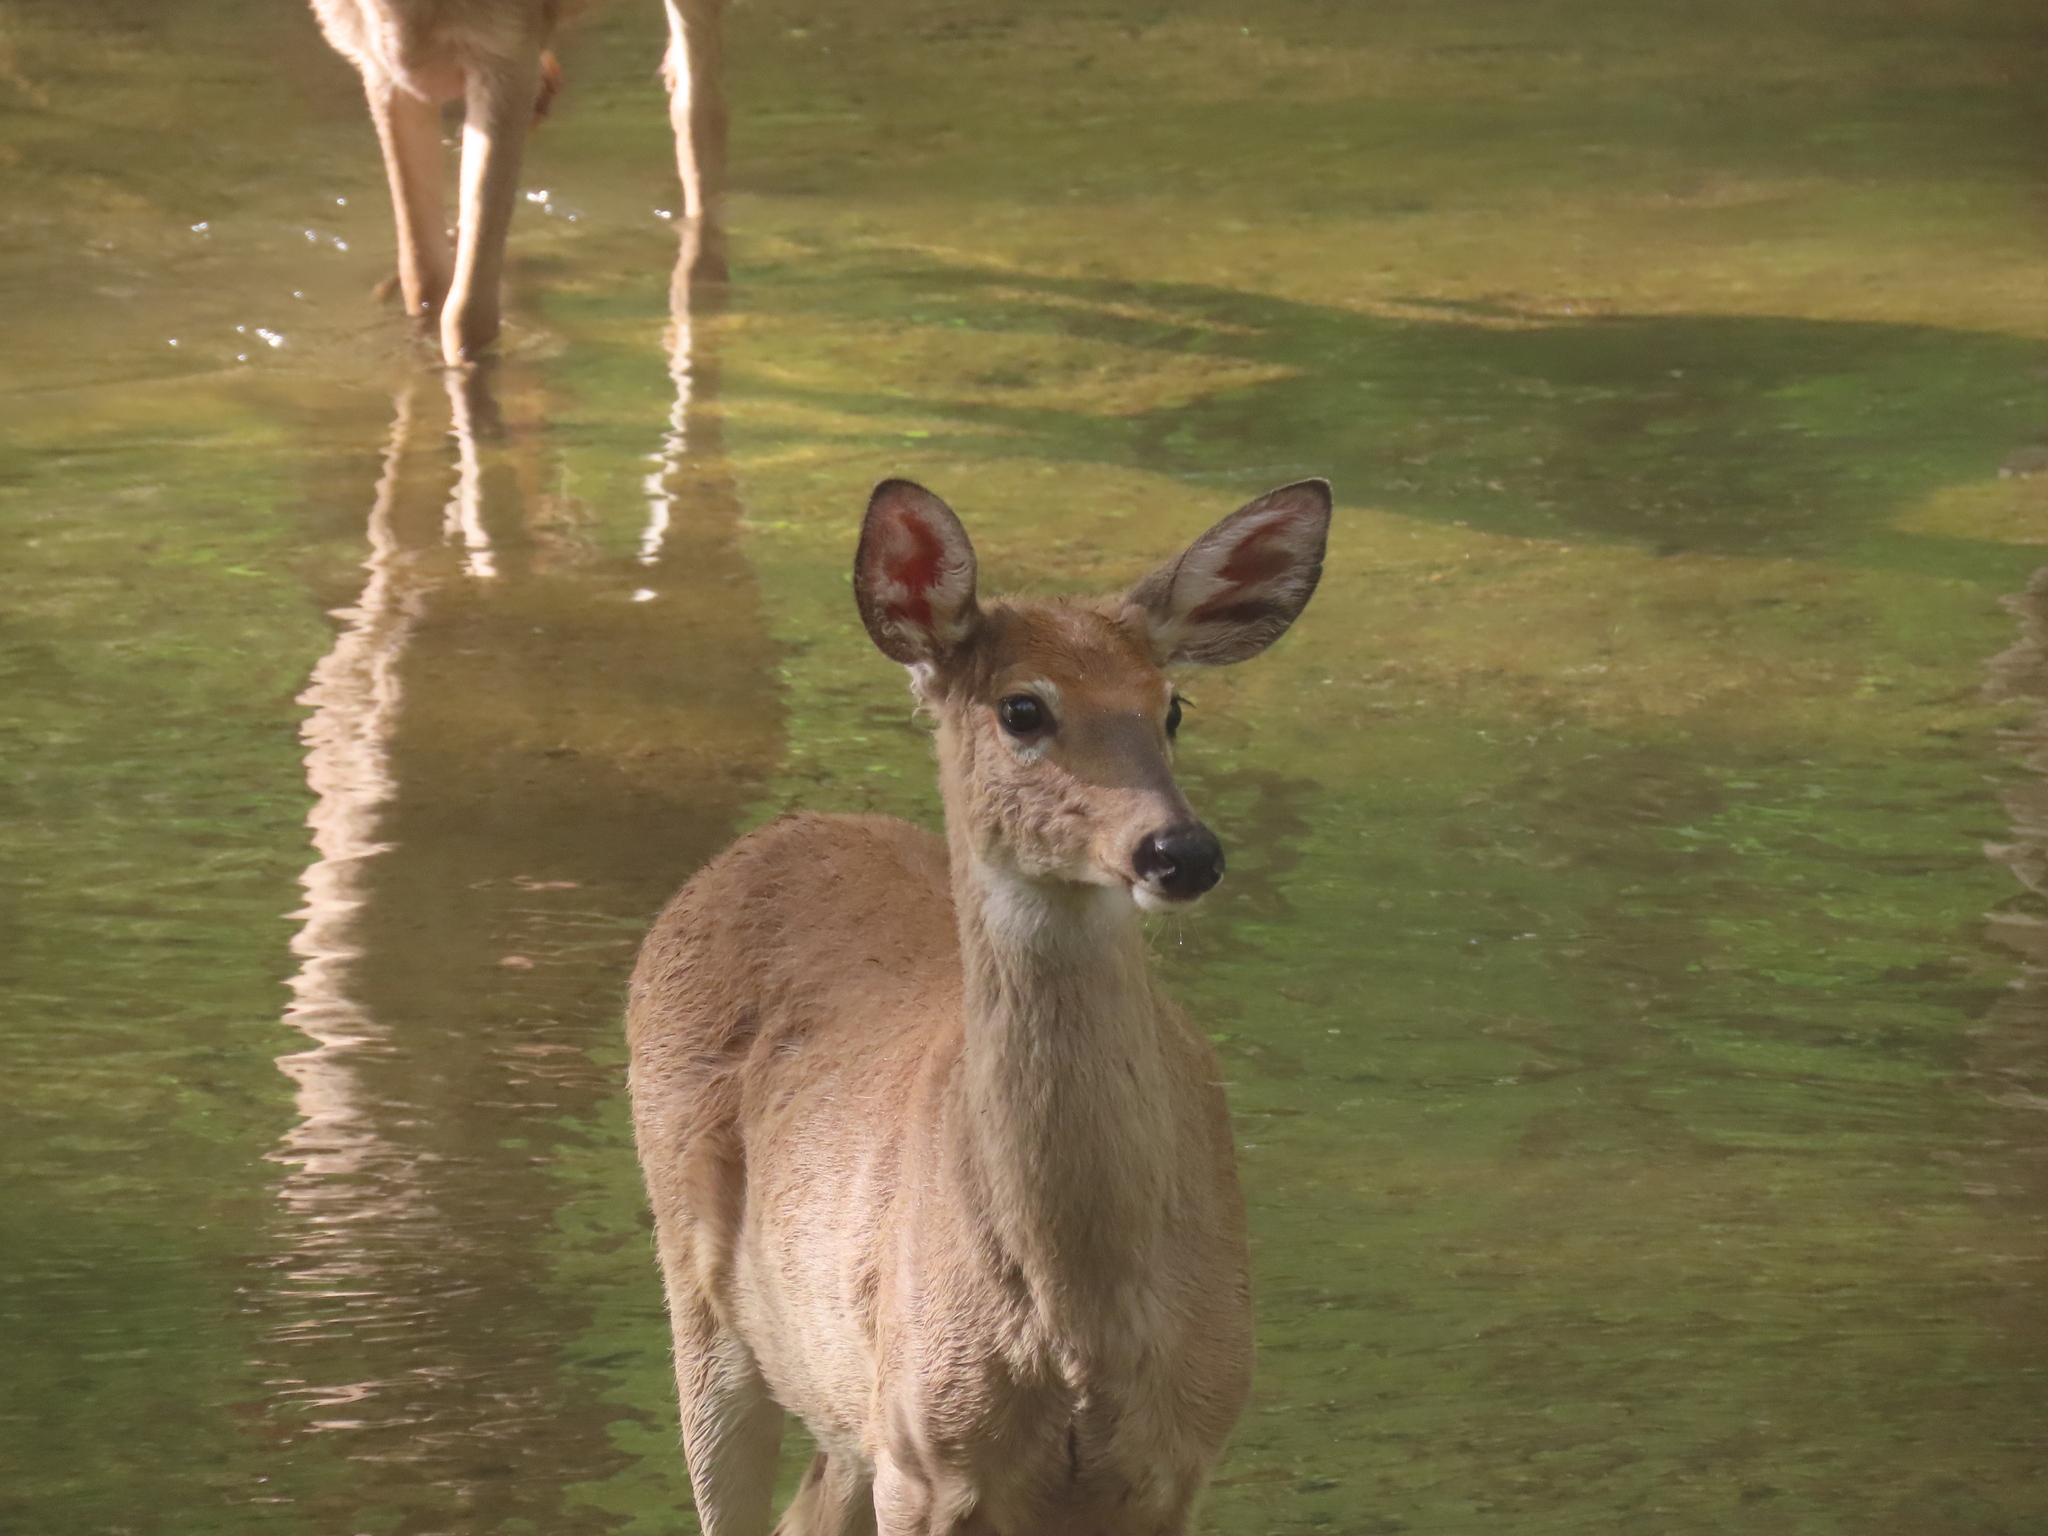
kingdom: Animalia
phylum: Chordata
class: Mammalia
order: Artiodactyla
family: Cervidae
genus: Odocoileus
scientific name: Odocoileus virginianus
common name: White-tailed deer
